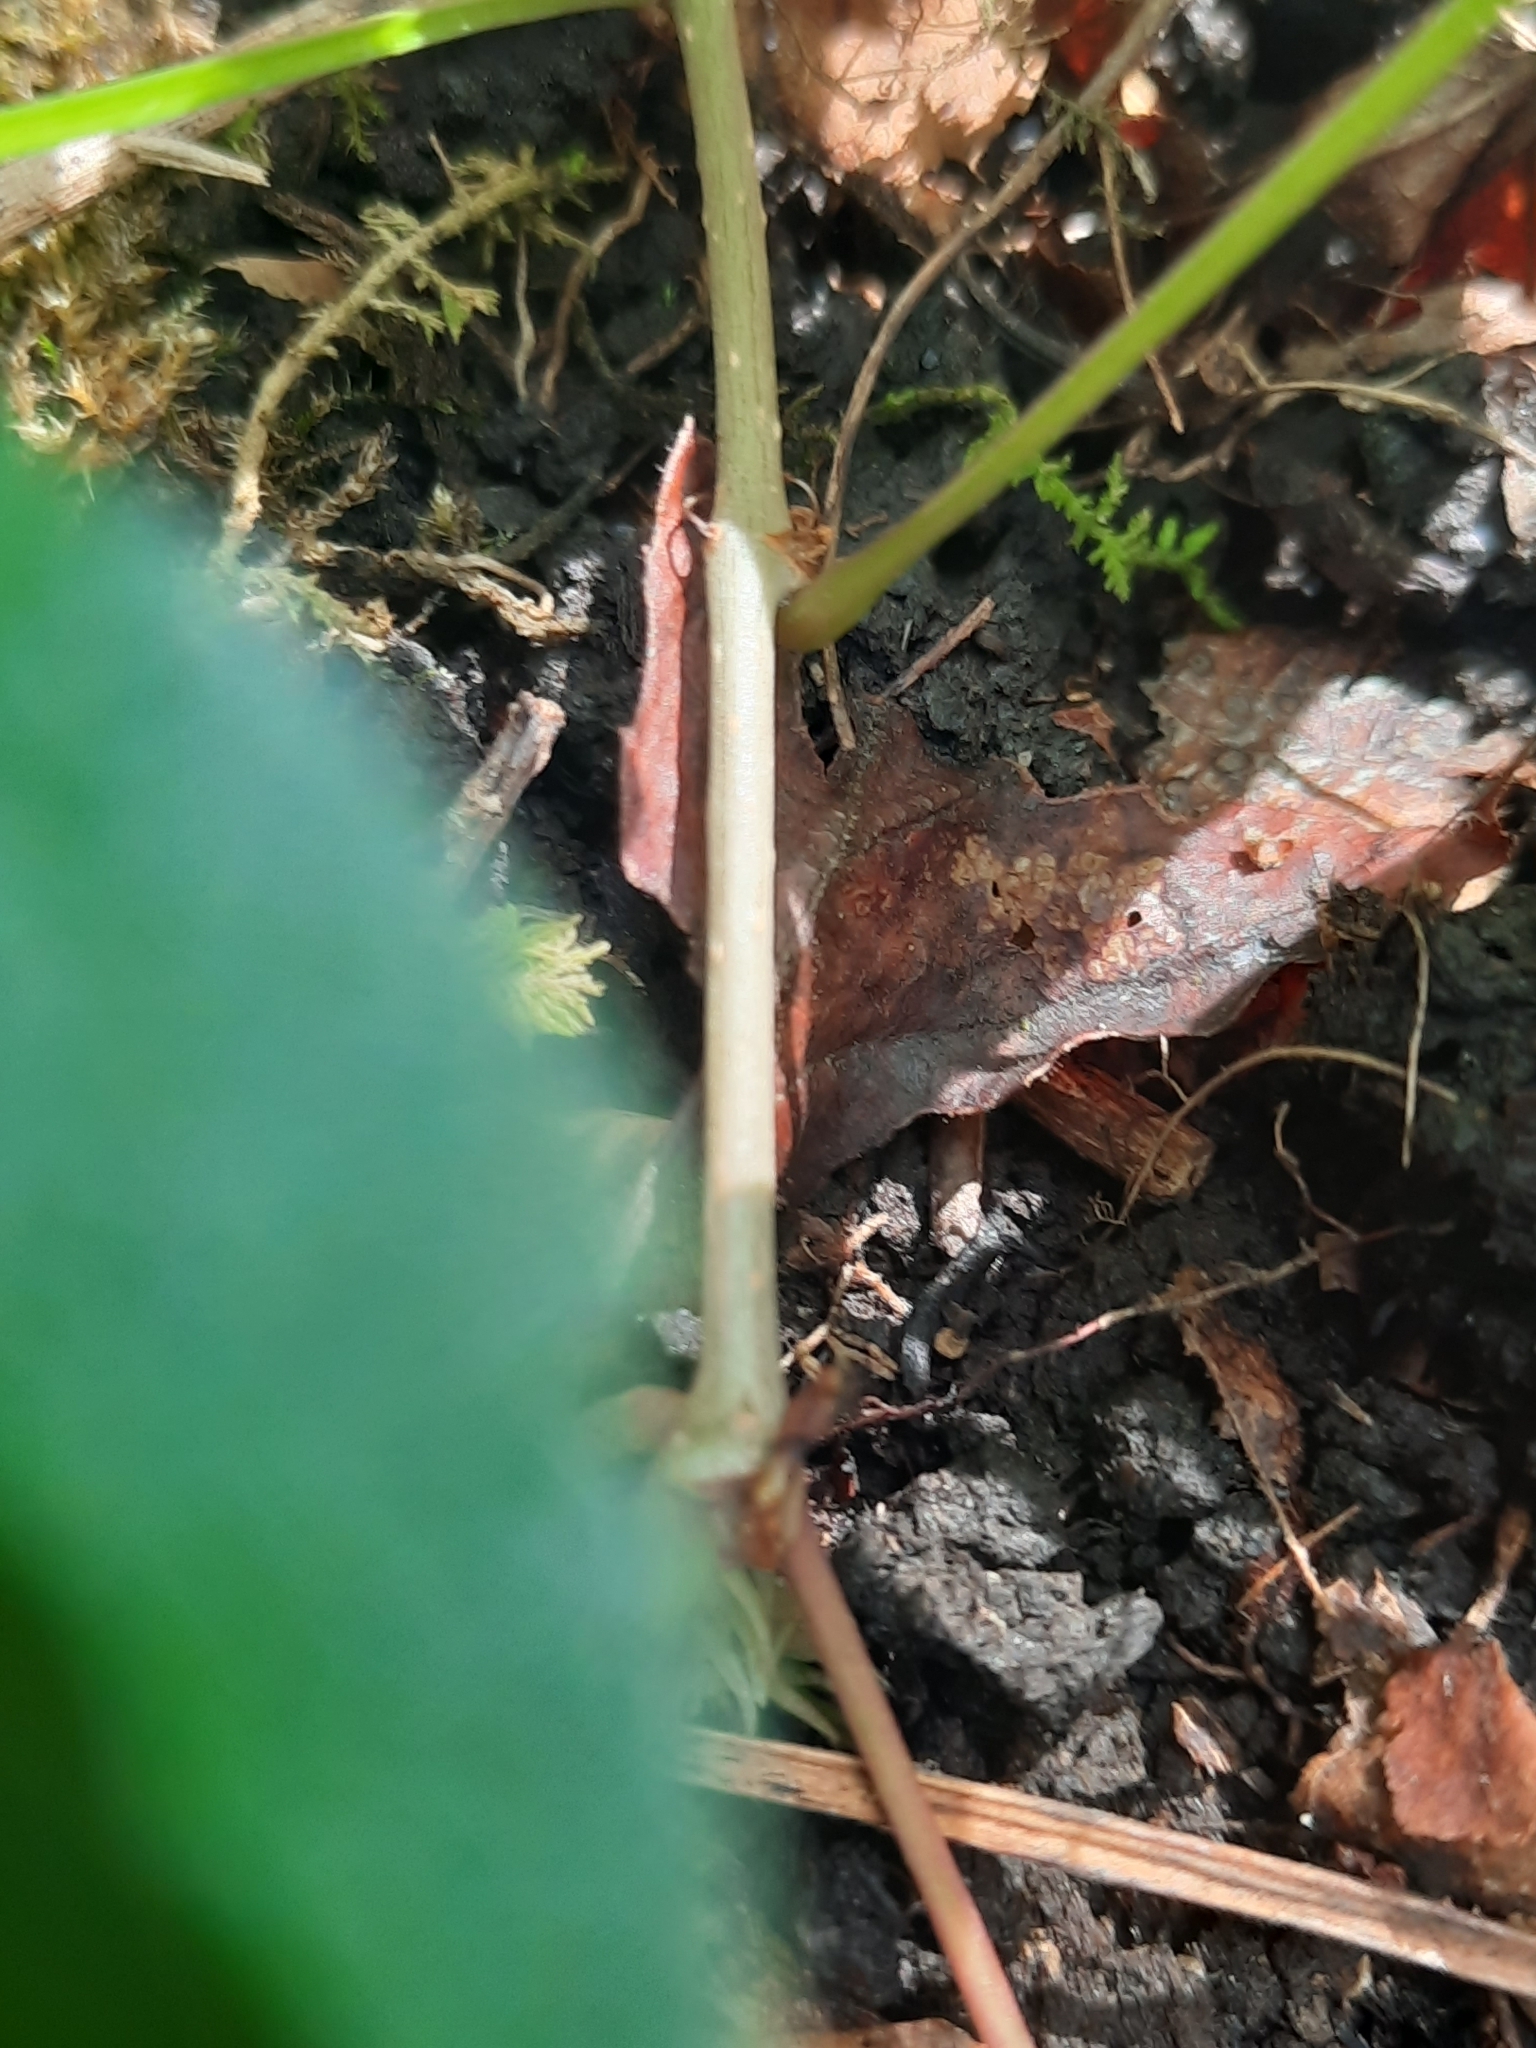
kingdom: Plantae
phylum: Tracheophyta
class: Magnoliopsida
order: Vitales
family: Vitaceae
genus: Parthenocissus
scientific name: Parthenocissus quinquefolia
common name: Virginia-creeper
